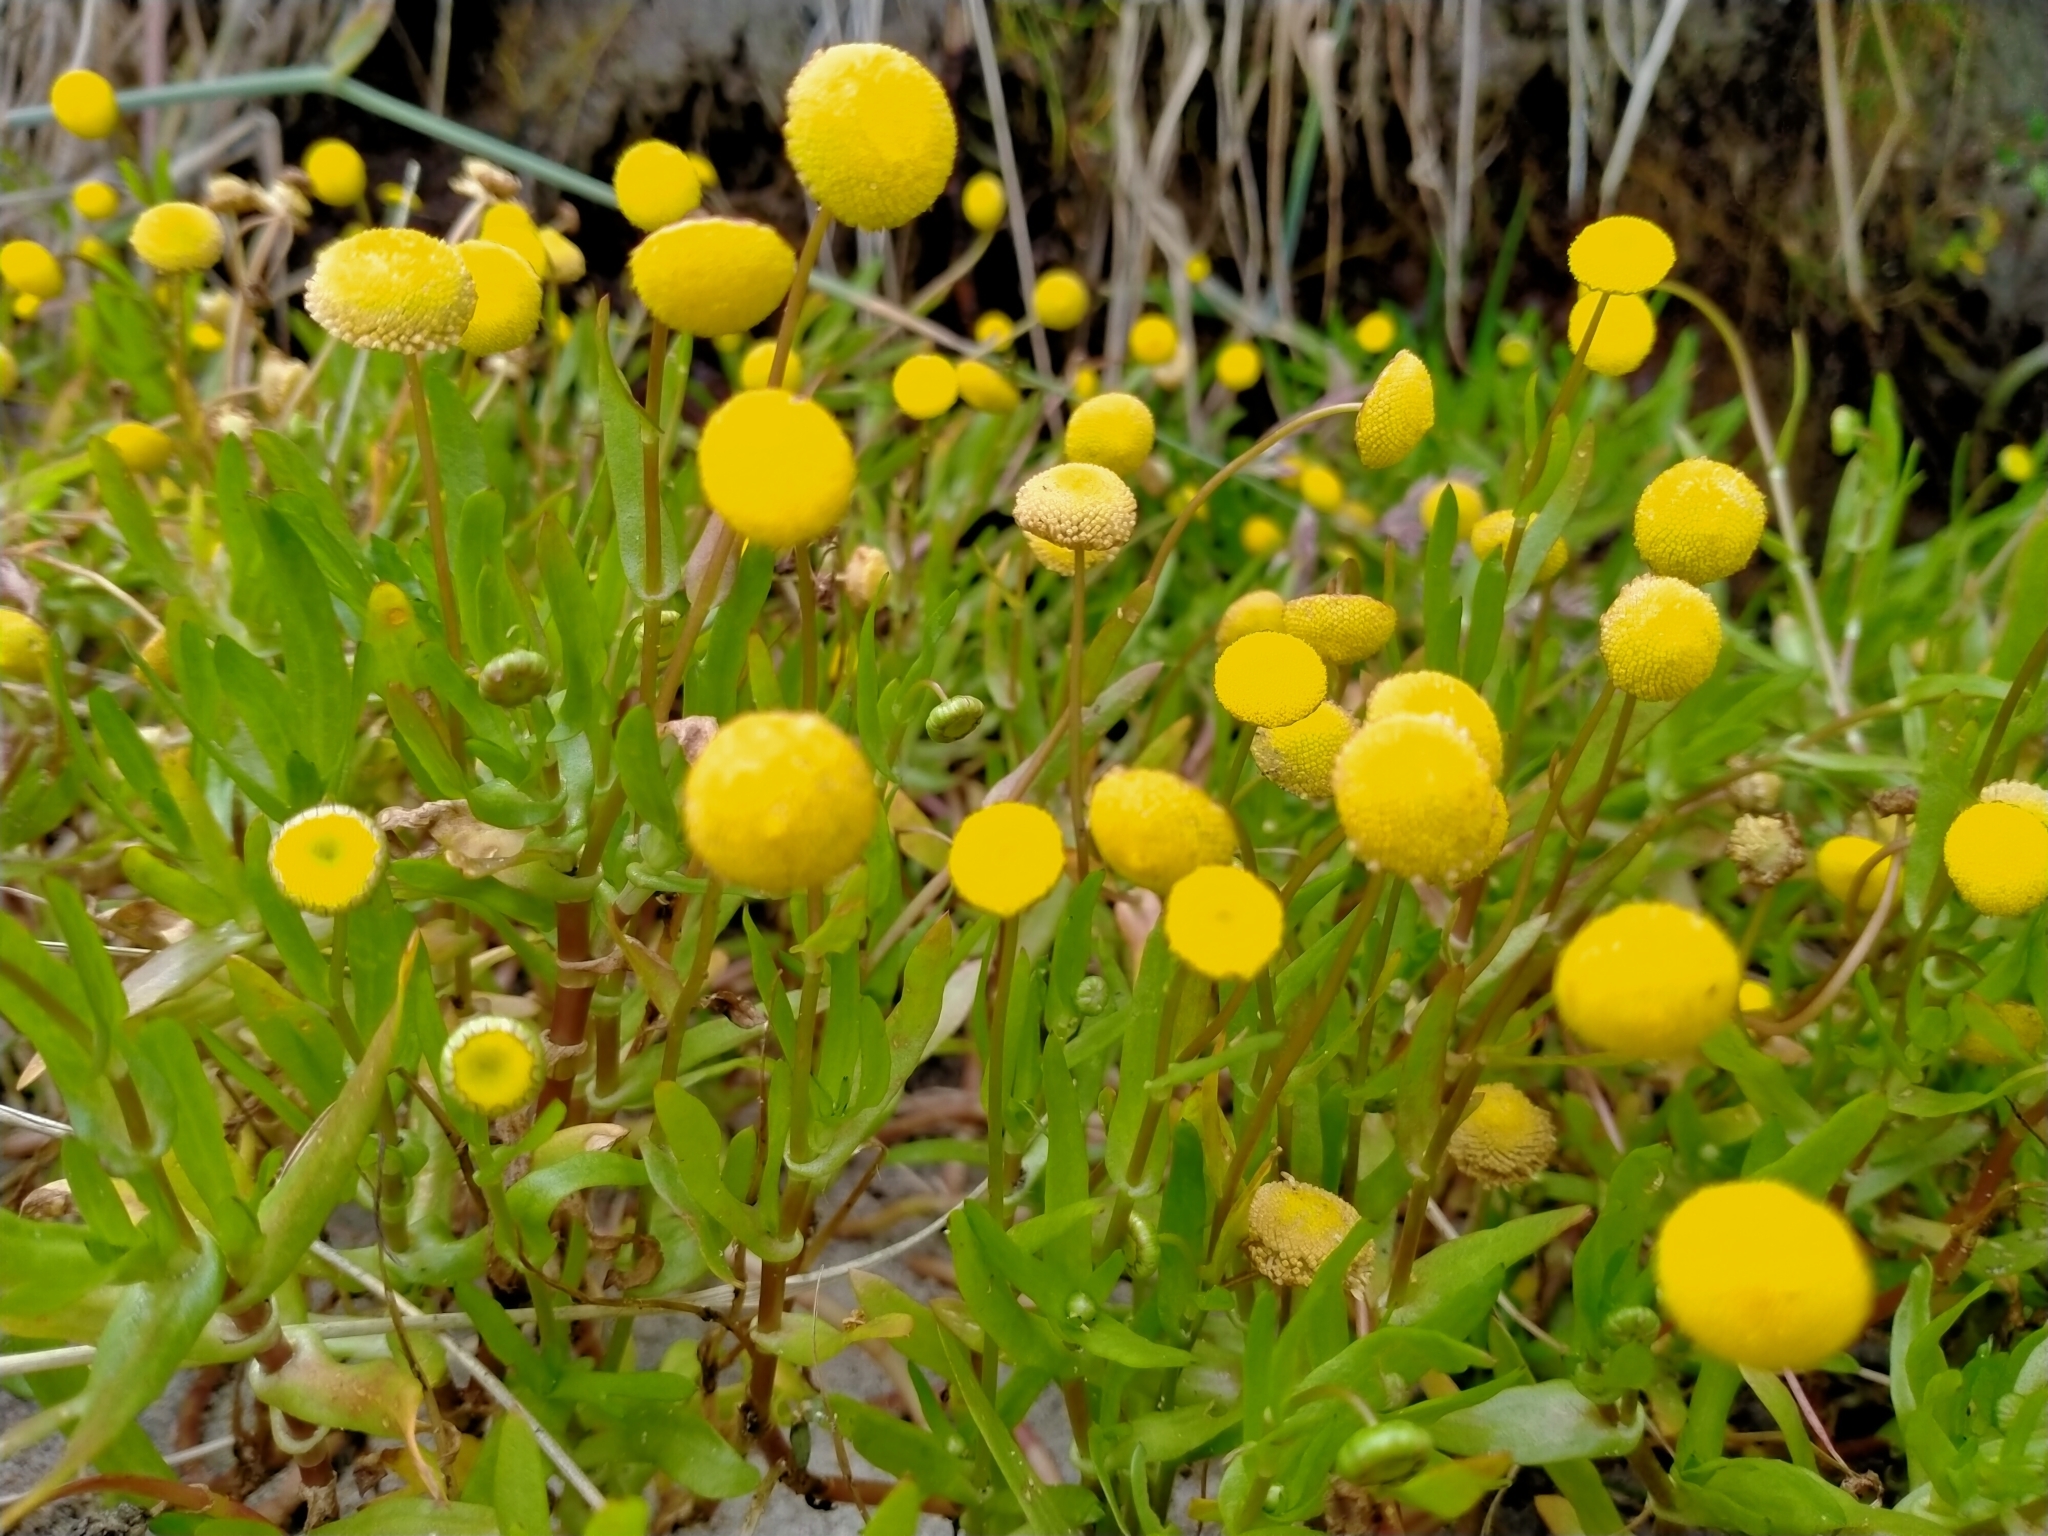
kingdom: Plantae
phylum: Tracheophyta
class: Magnoliopsida
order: Asterales
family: Asteraceae
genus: Cotula
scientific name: Cotula coronopifolia
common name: Buttonweed
